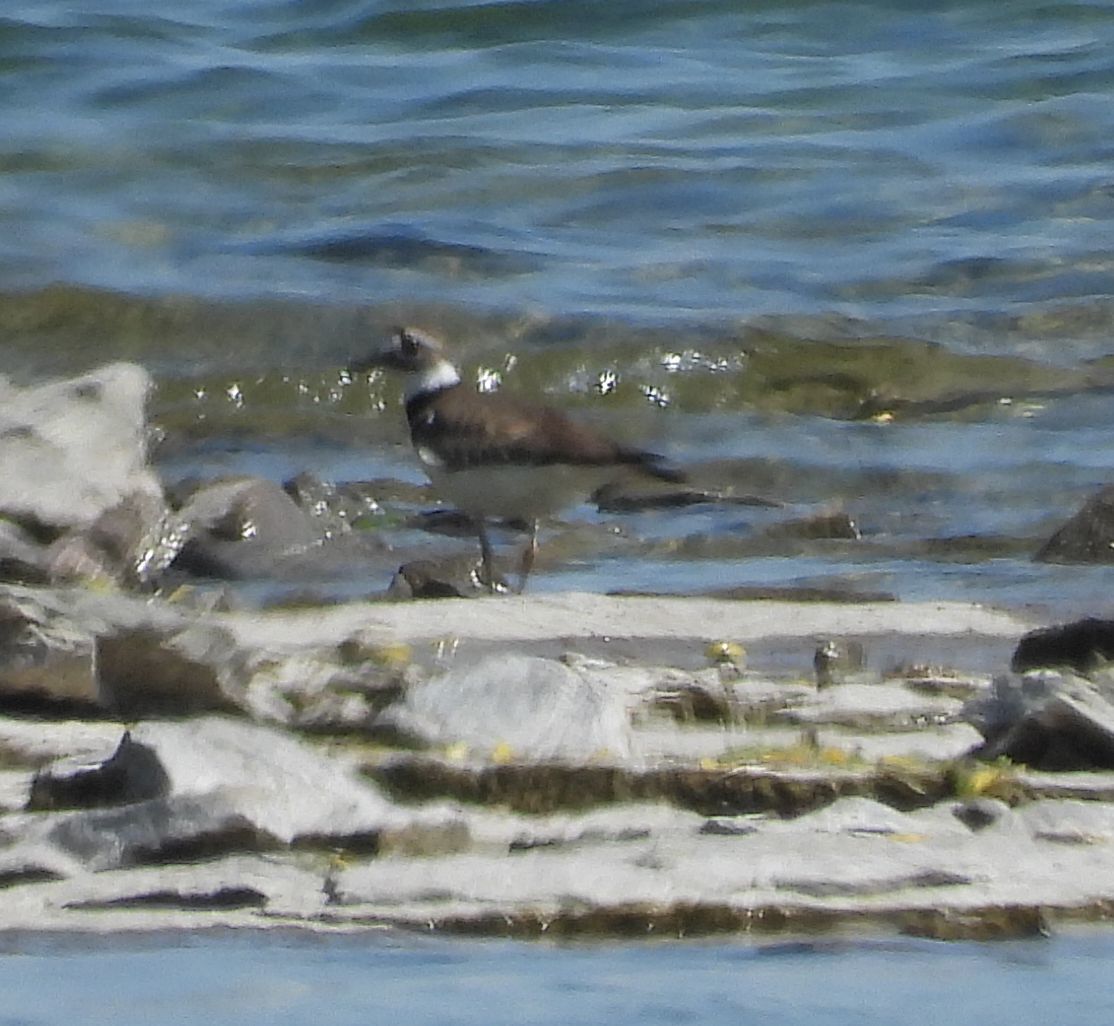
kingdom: Animalia
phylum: Chordata
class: Aves
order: Charadriiformes
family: Charadriidae
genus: Charadrius
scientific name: Charadrius vociferus
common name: Killdeer
